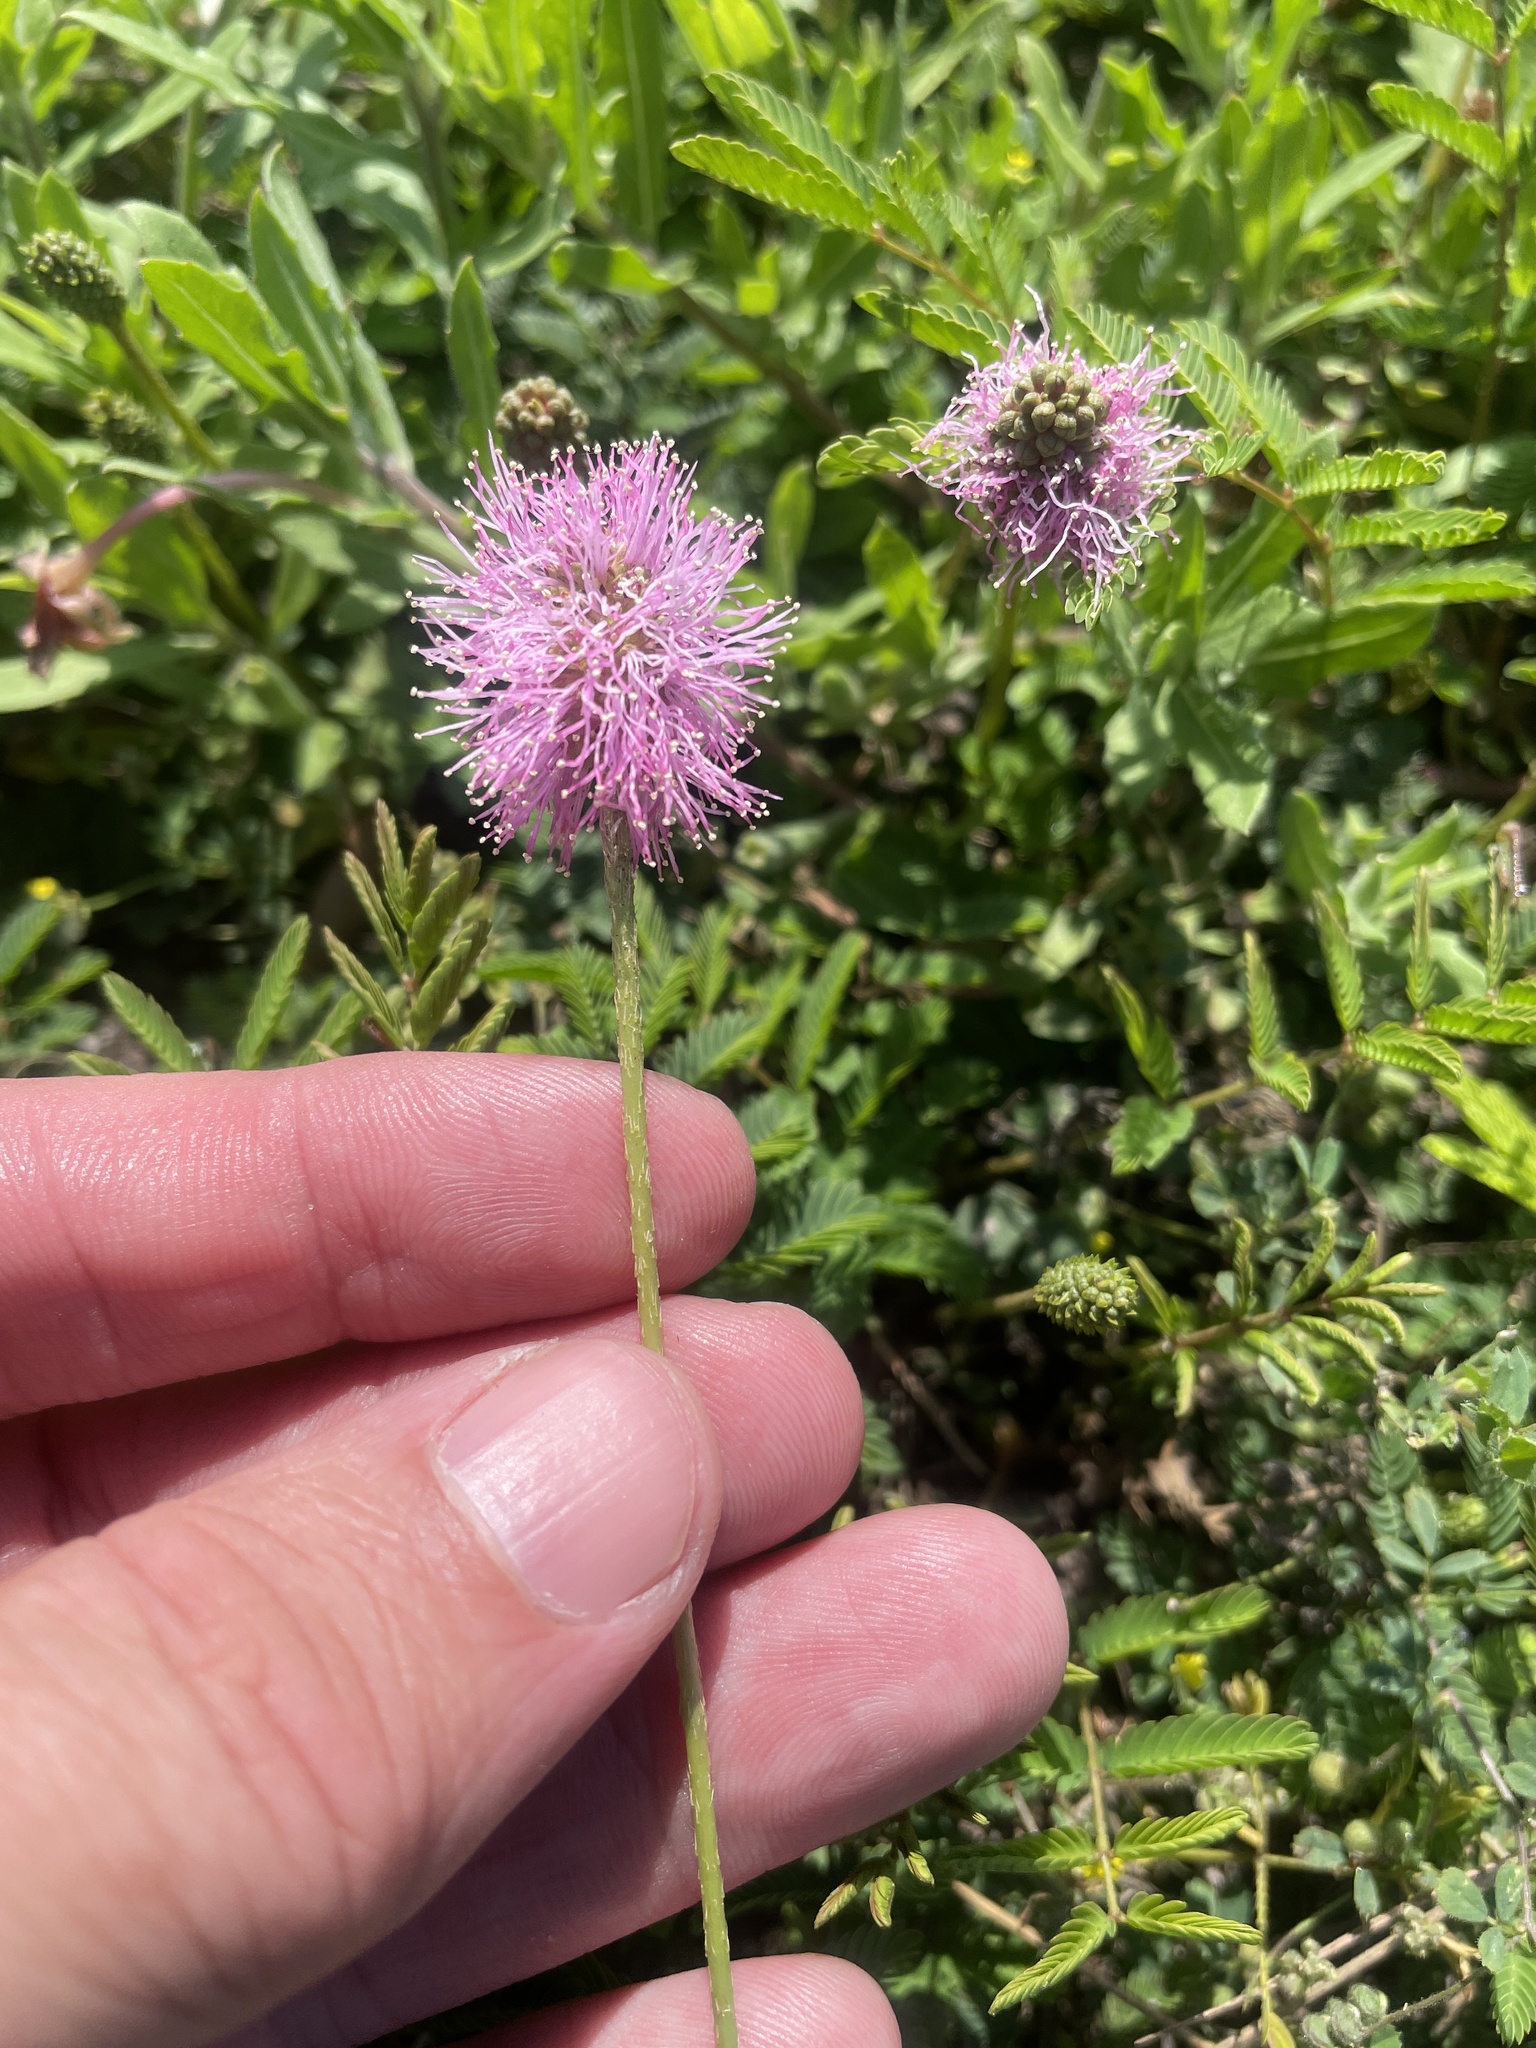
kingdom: Plantae
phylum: Tracheophyta
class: Magnoliopsida
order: Fabales
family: Fabaceae
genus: Mimosa
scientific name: Mimosa strigillosa
